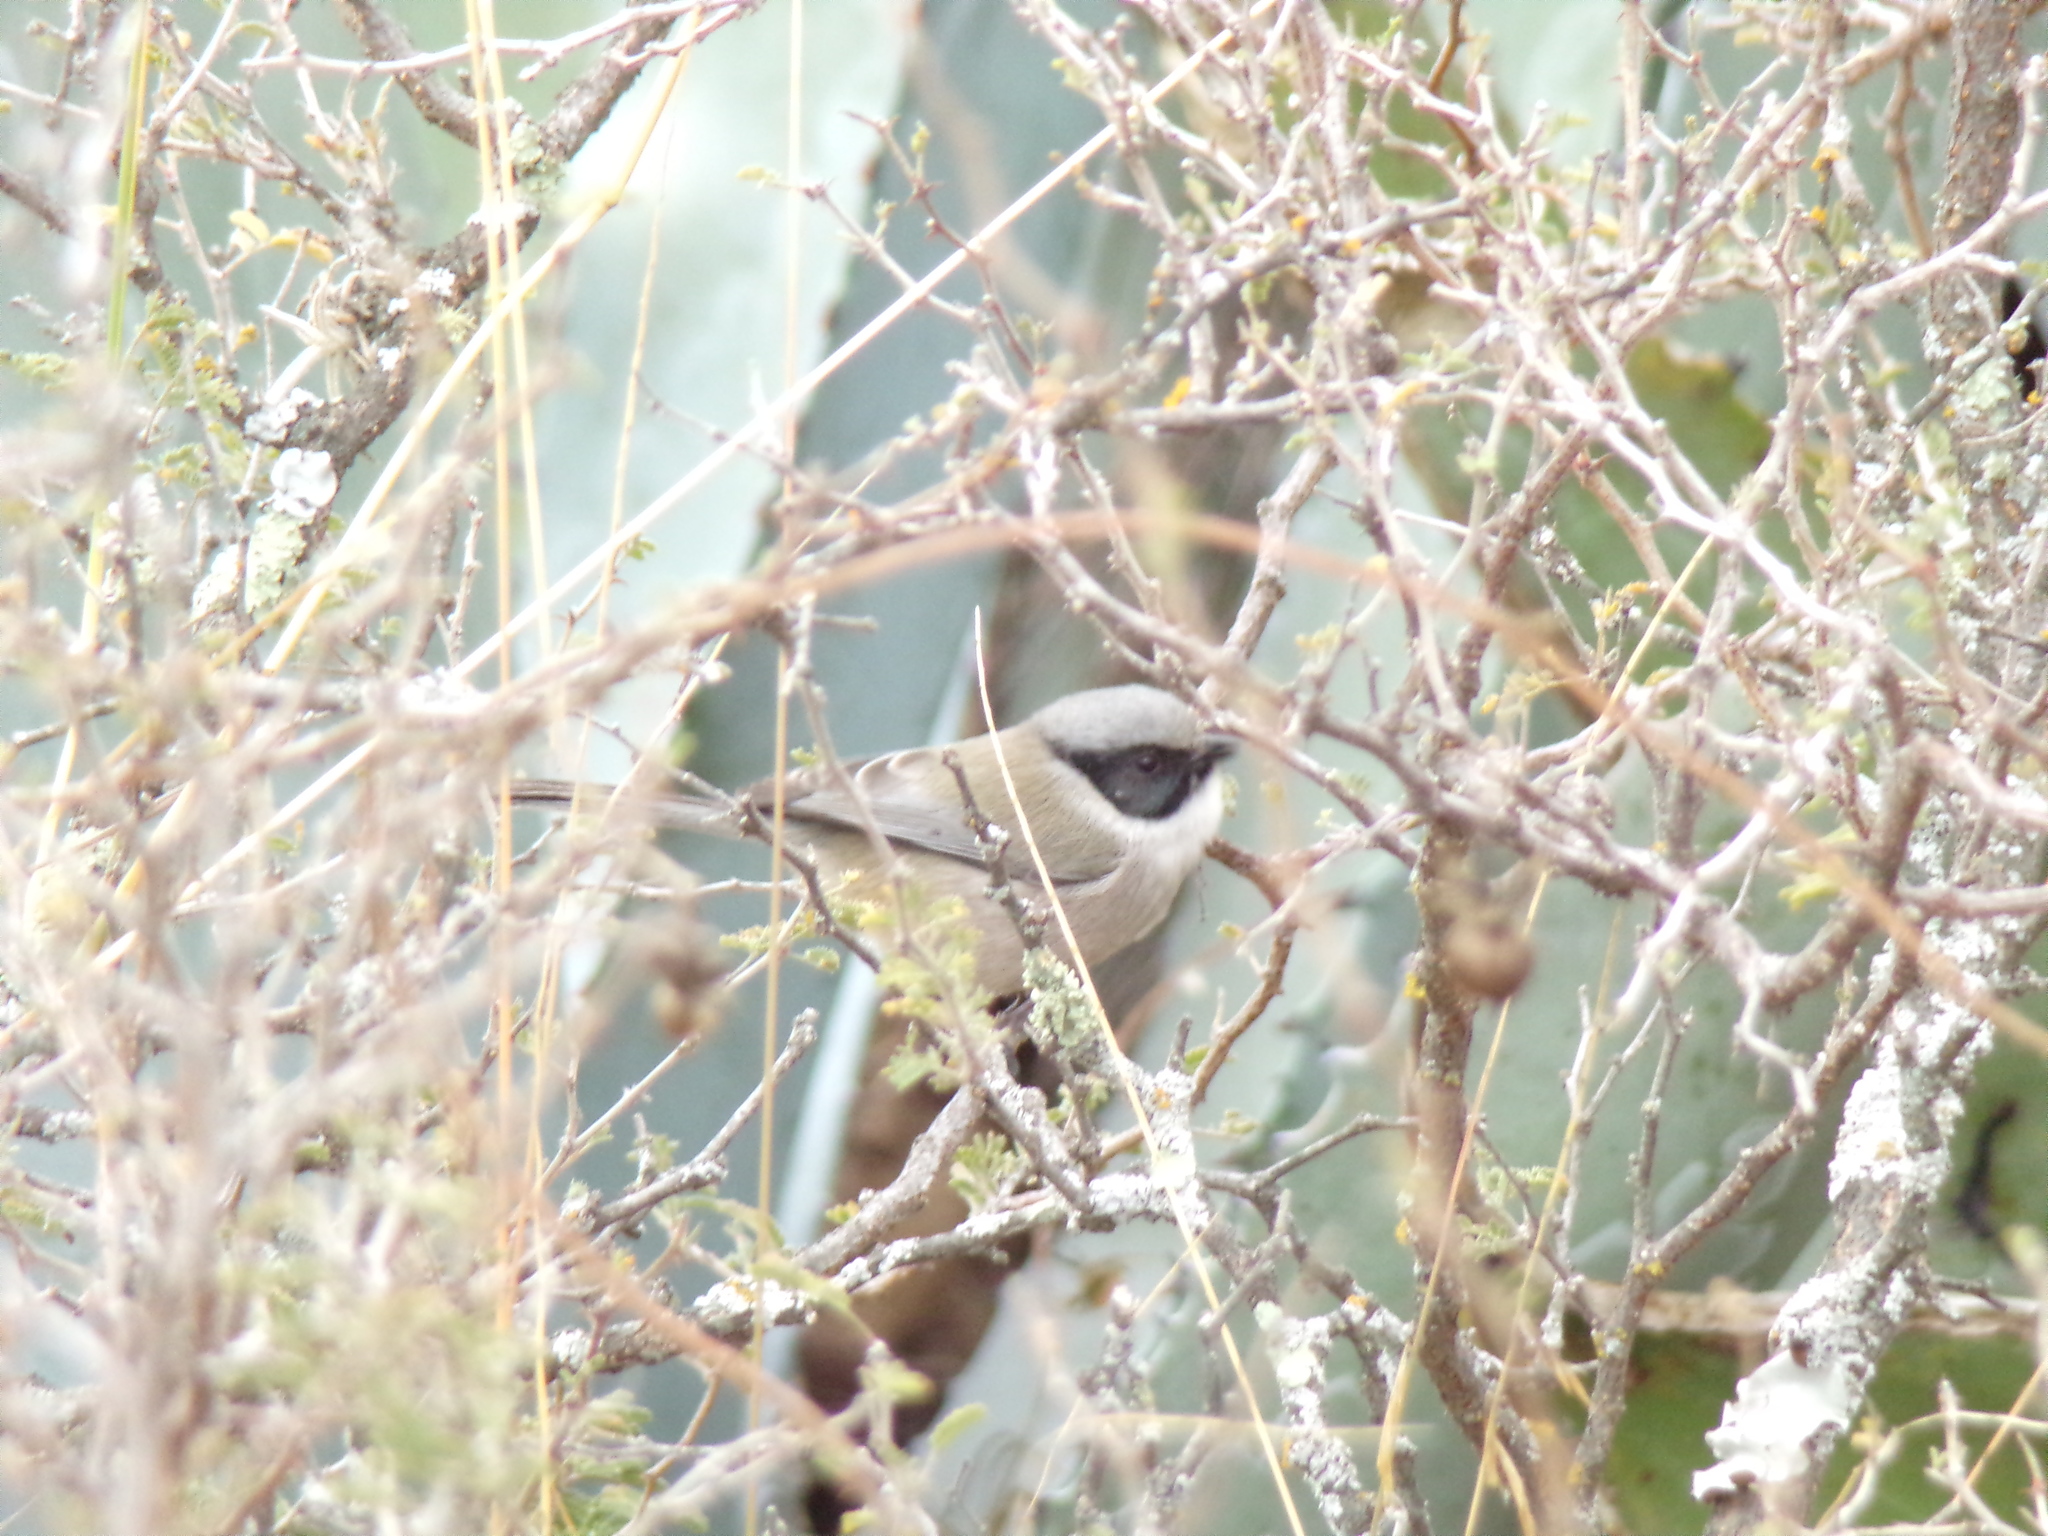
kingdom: Animalia
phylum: Chordata
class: Aves
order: Passeriformes
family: Aegithalidae
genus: Psaltriparus
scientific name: Psaltriparus minimus
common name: American bushtit
